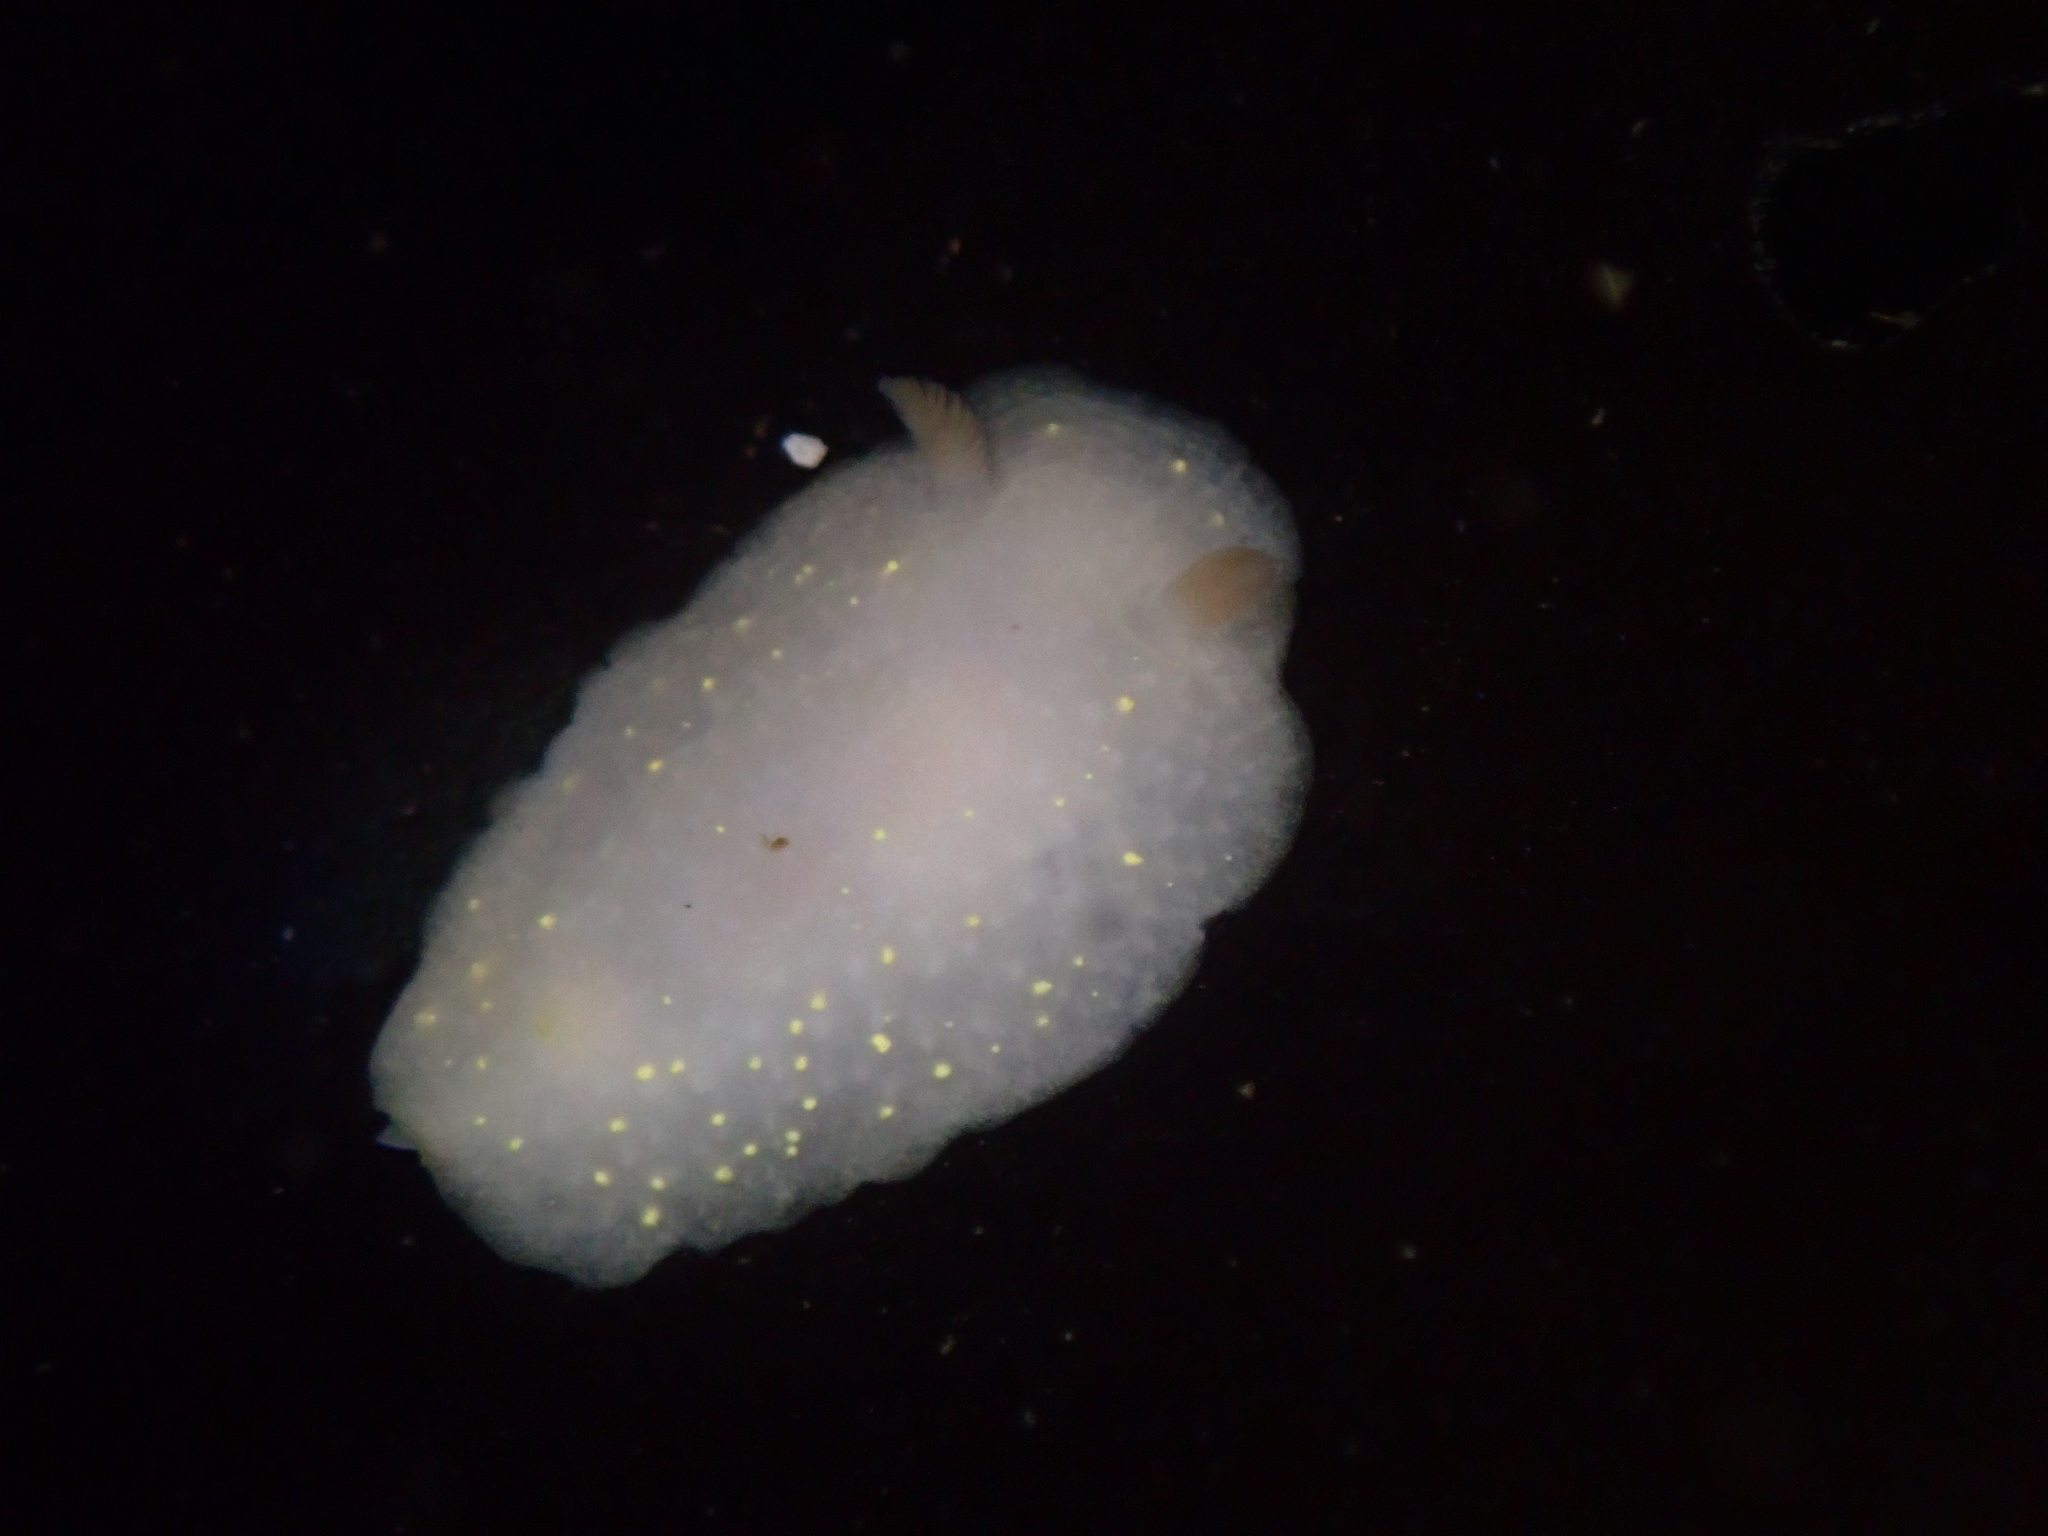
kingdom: Animalia
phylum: Mollusca
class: Gastropoda
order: Nudibranchia
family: Cadlinidae
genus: Cadlina
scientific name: Cadlina modesta
